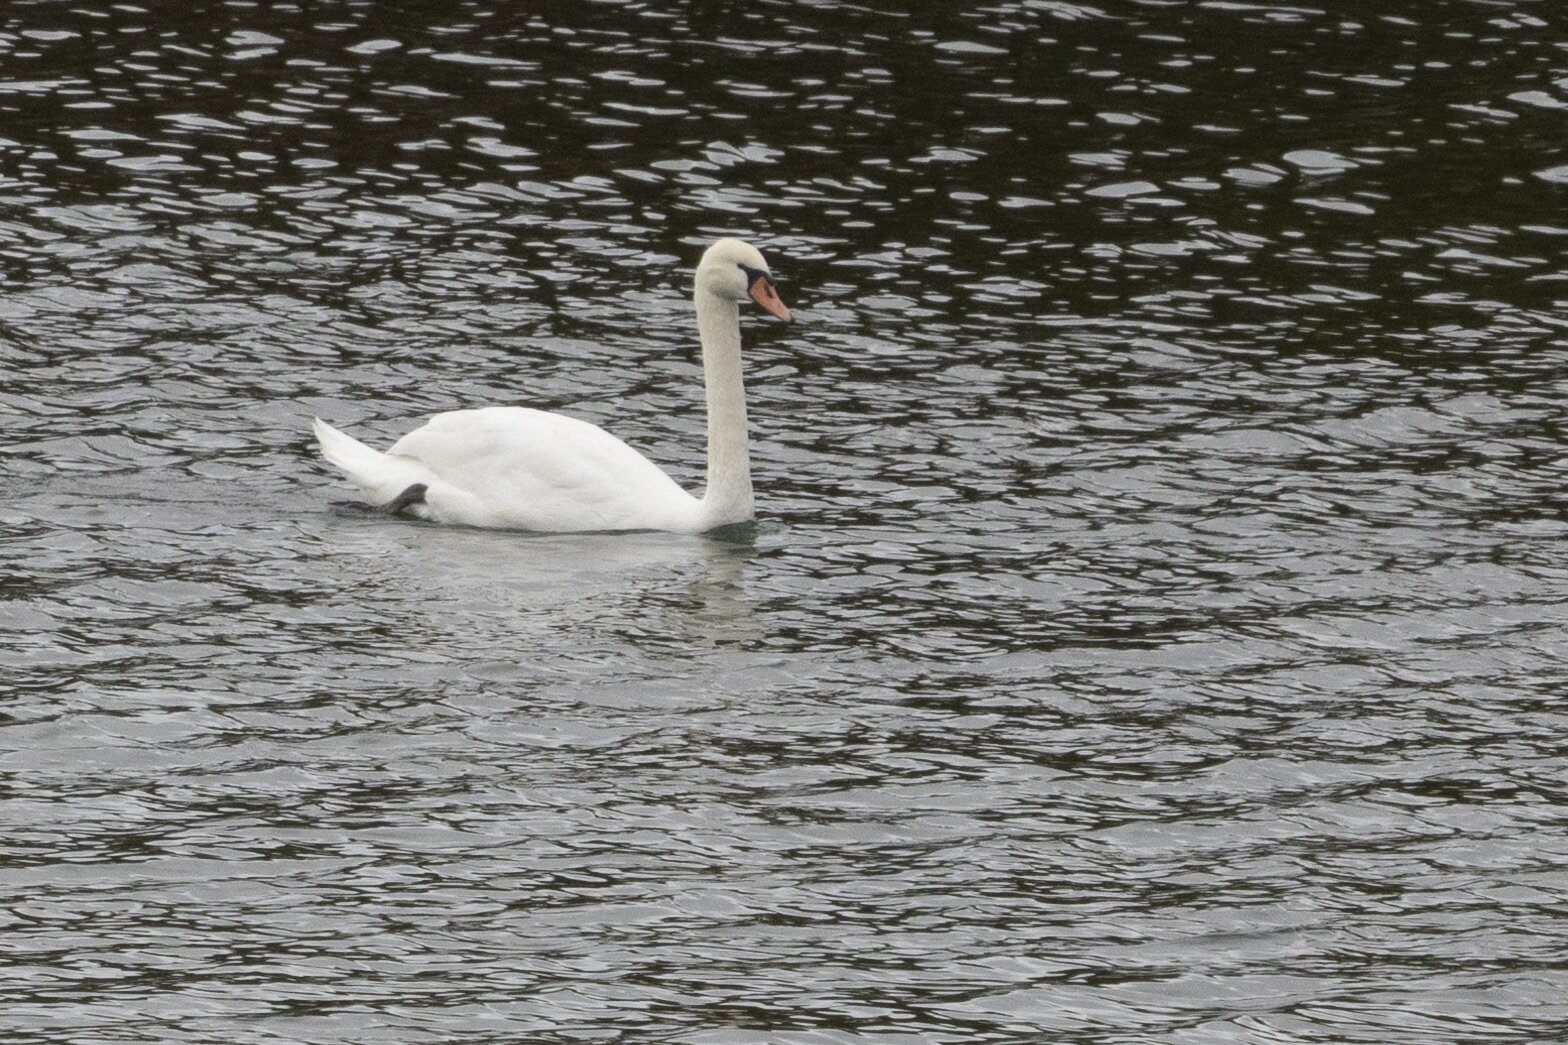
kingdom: Animalia
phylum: Chordata
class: Aves
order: Anseriformes
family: Anatidae
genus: Cygnus
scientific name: Cygnus olor
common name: Mute swan
